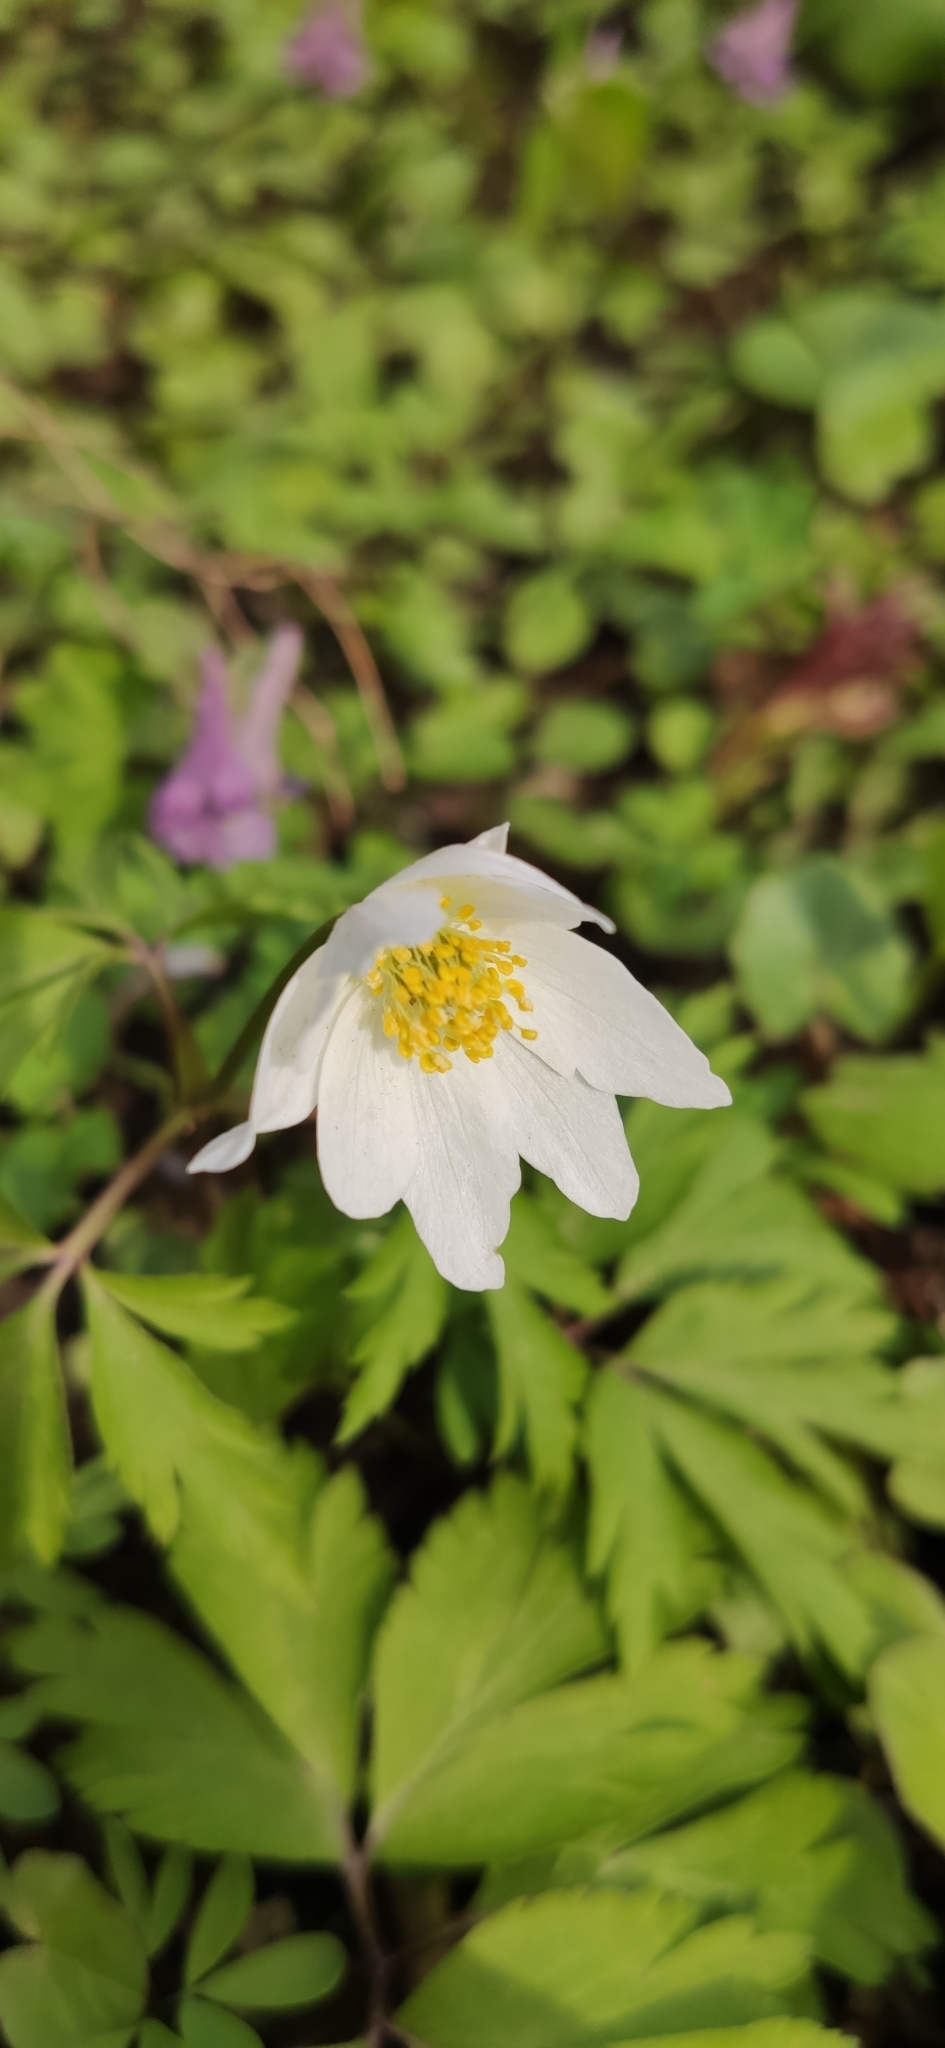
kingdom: Plantae
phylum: Tracheophyta
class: Magnoliopsida
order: Ranunculales
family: Ranunculaceae
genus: Anemone
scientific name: Anemone nemorosa
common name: Wood anemone
